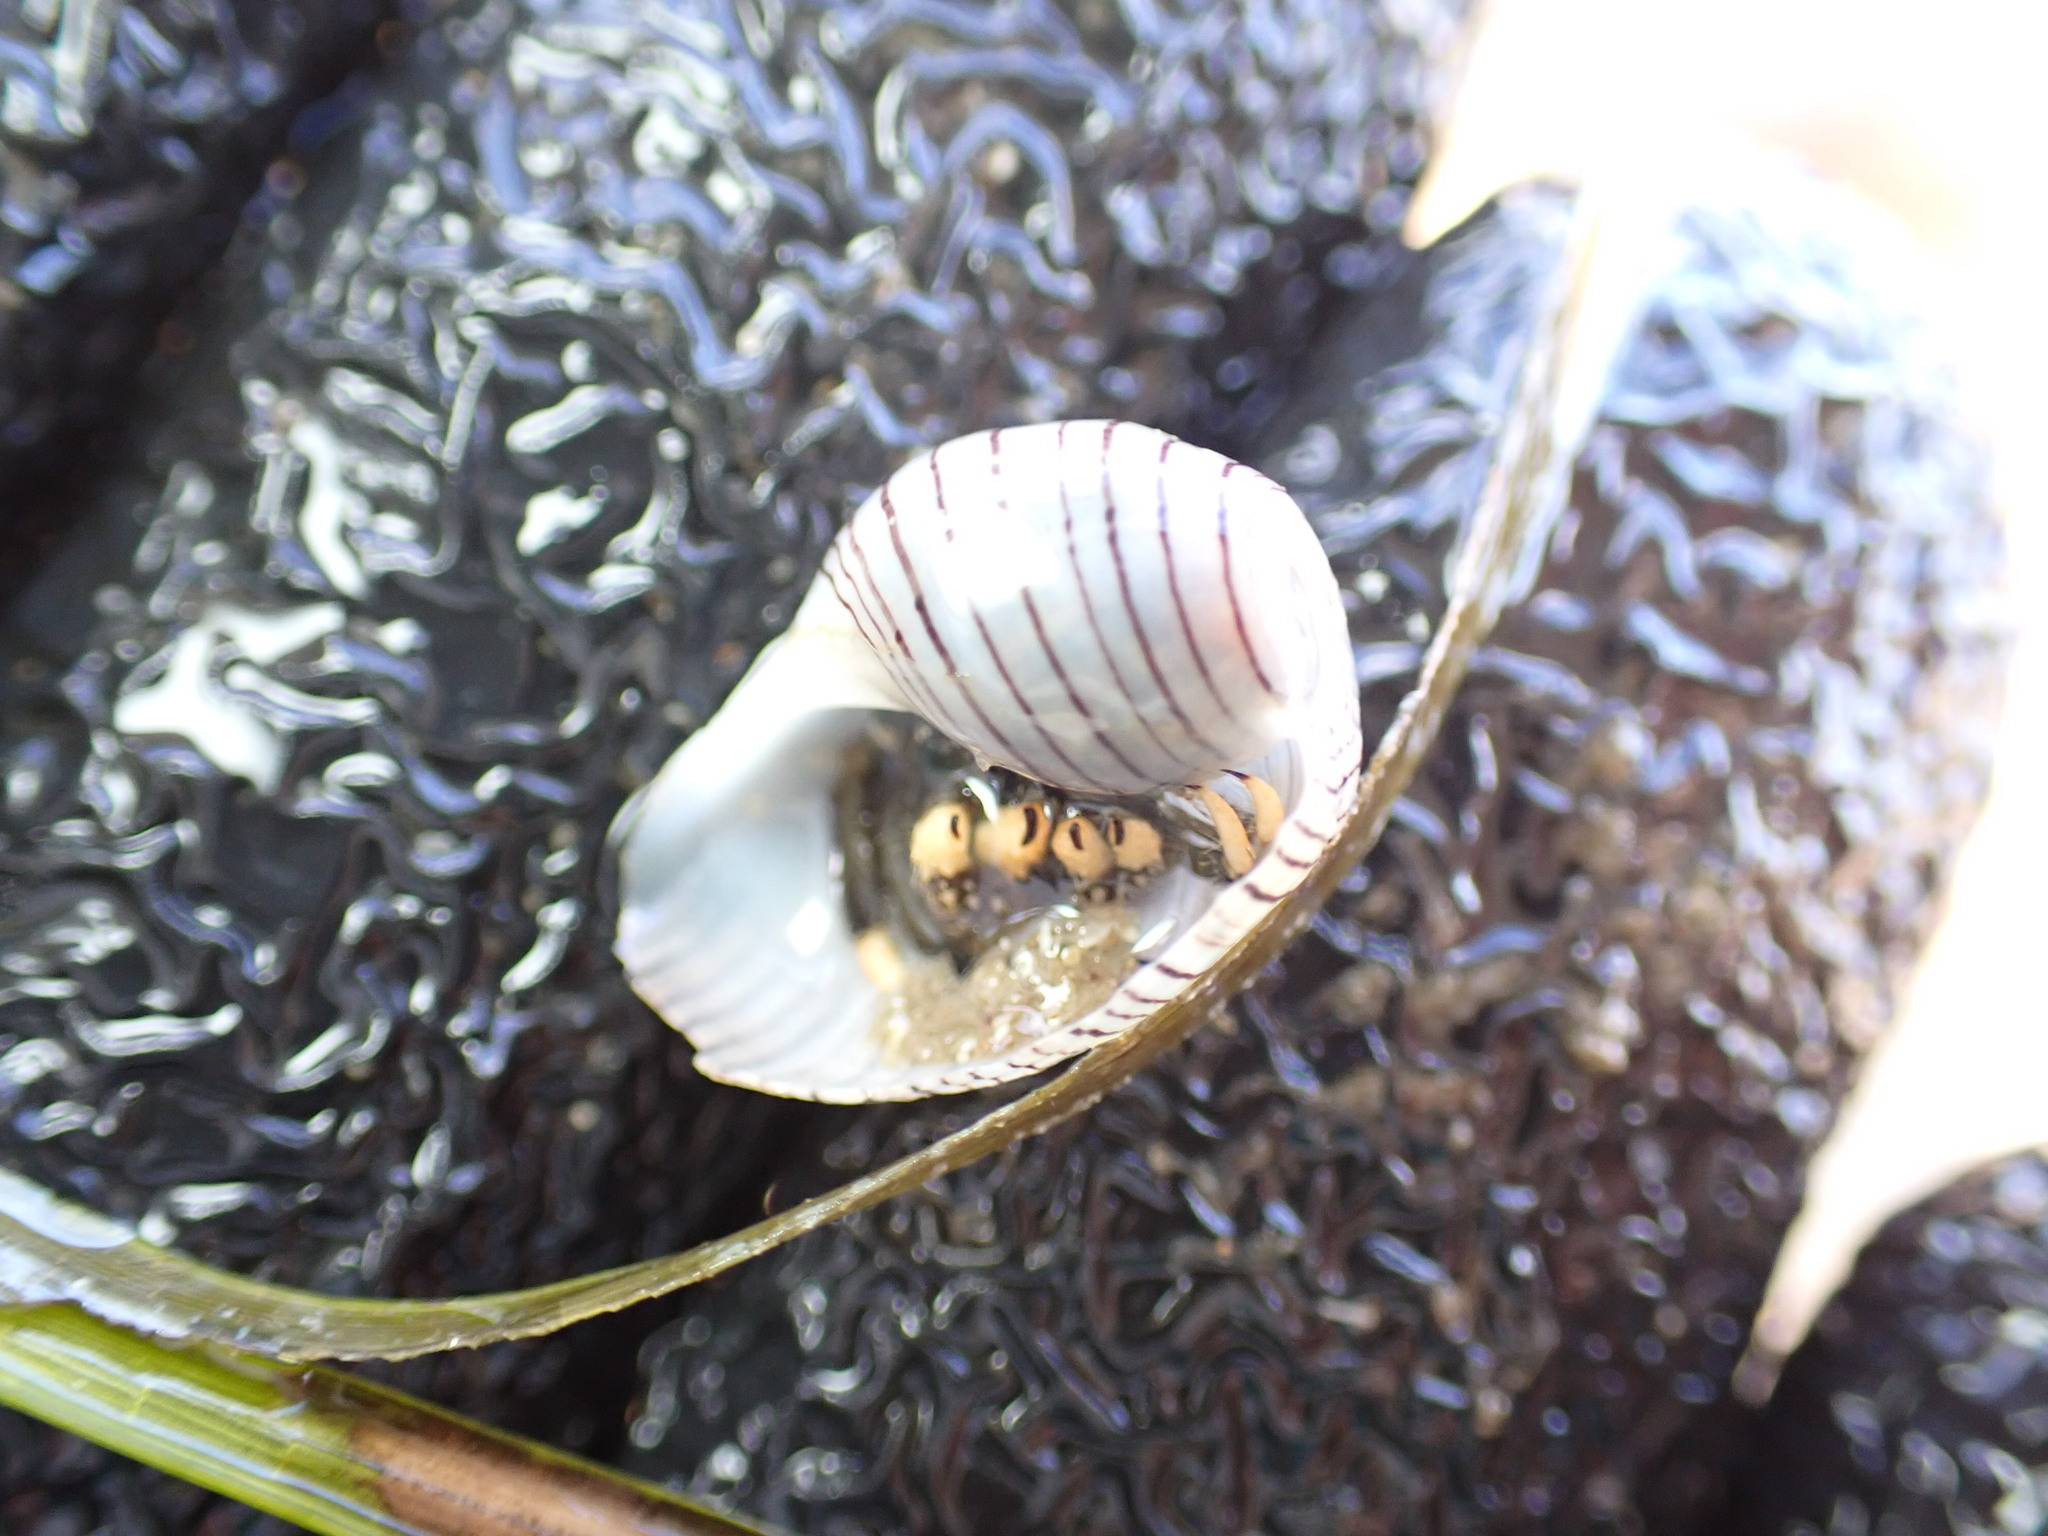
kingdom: Animalia
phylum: Mollusca
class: Gastropoda
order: Cephalaspidea
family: Aplustridae
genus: Hydatina
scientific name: Hydatina physis
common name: Brown-line paperbubble
